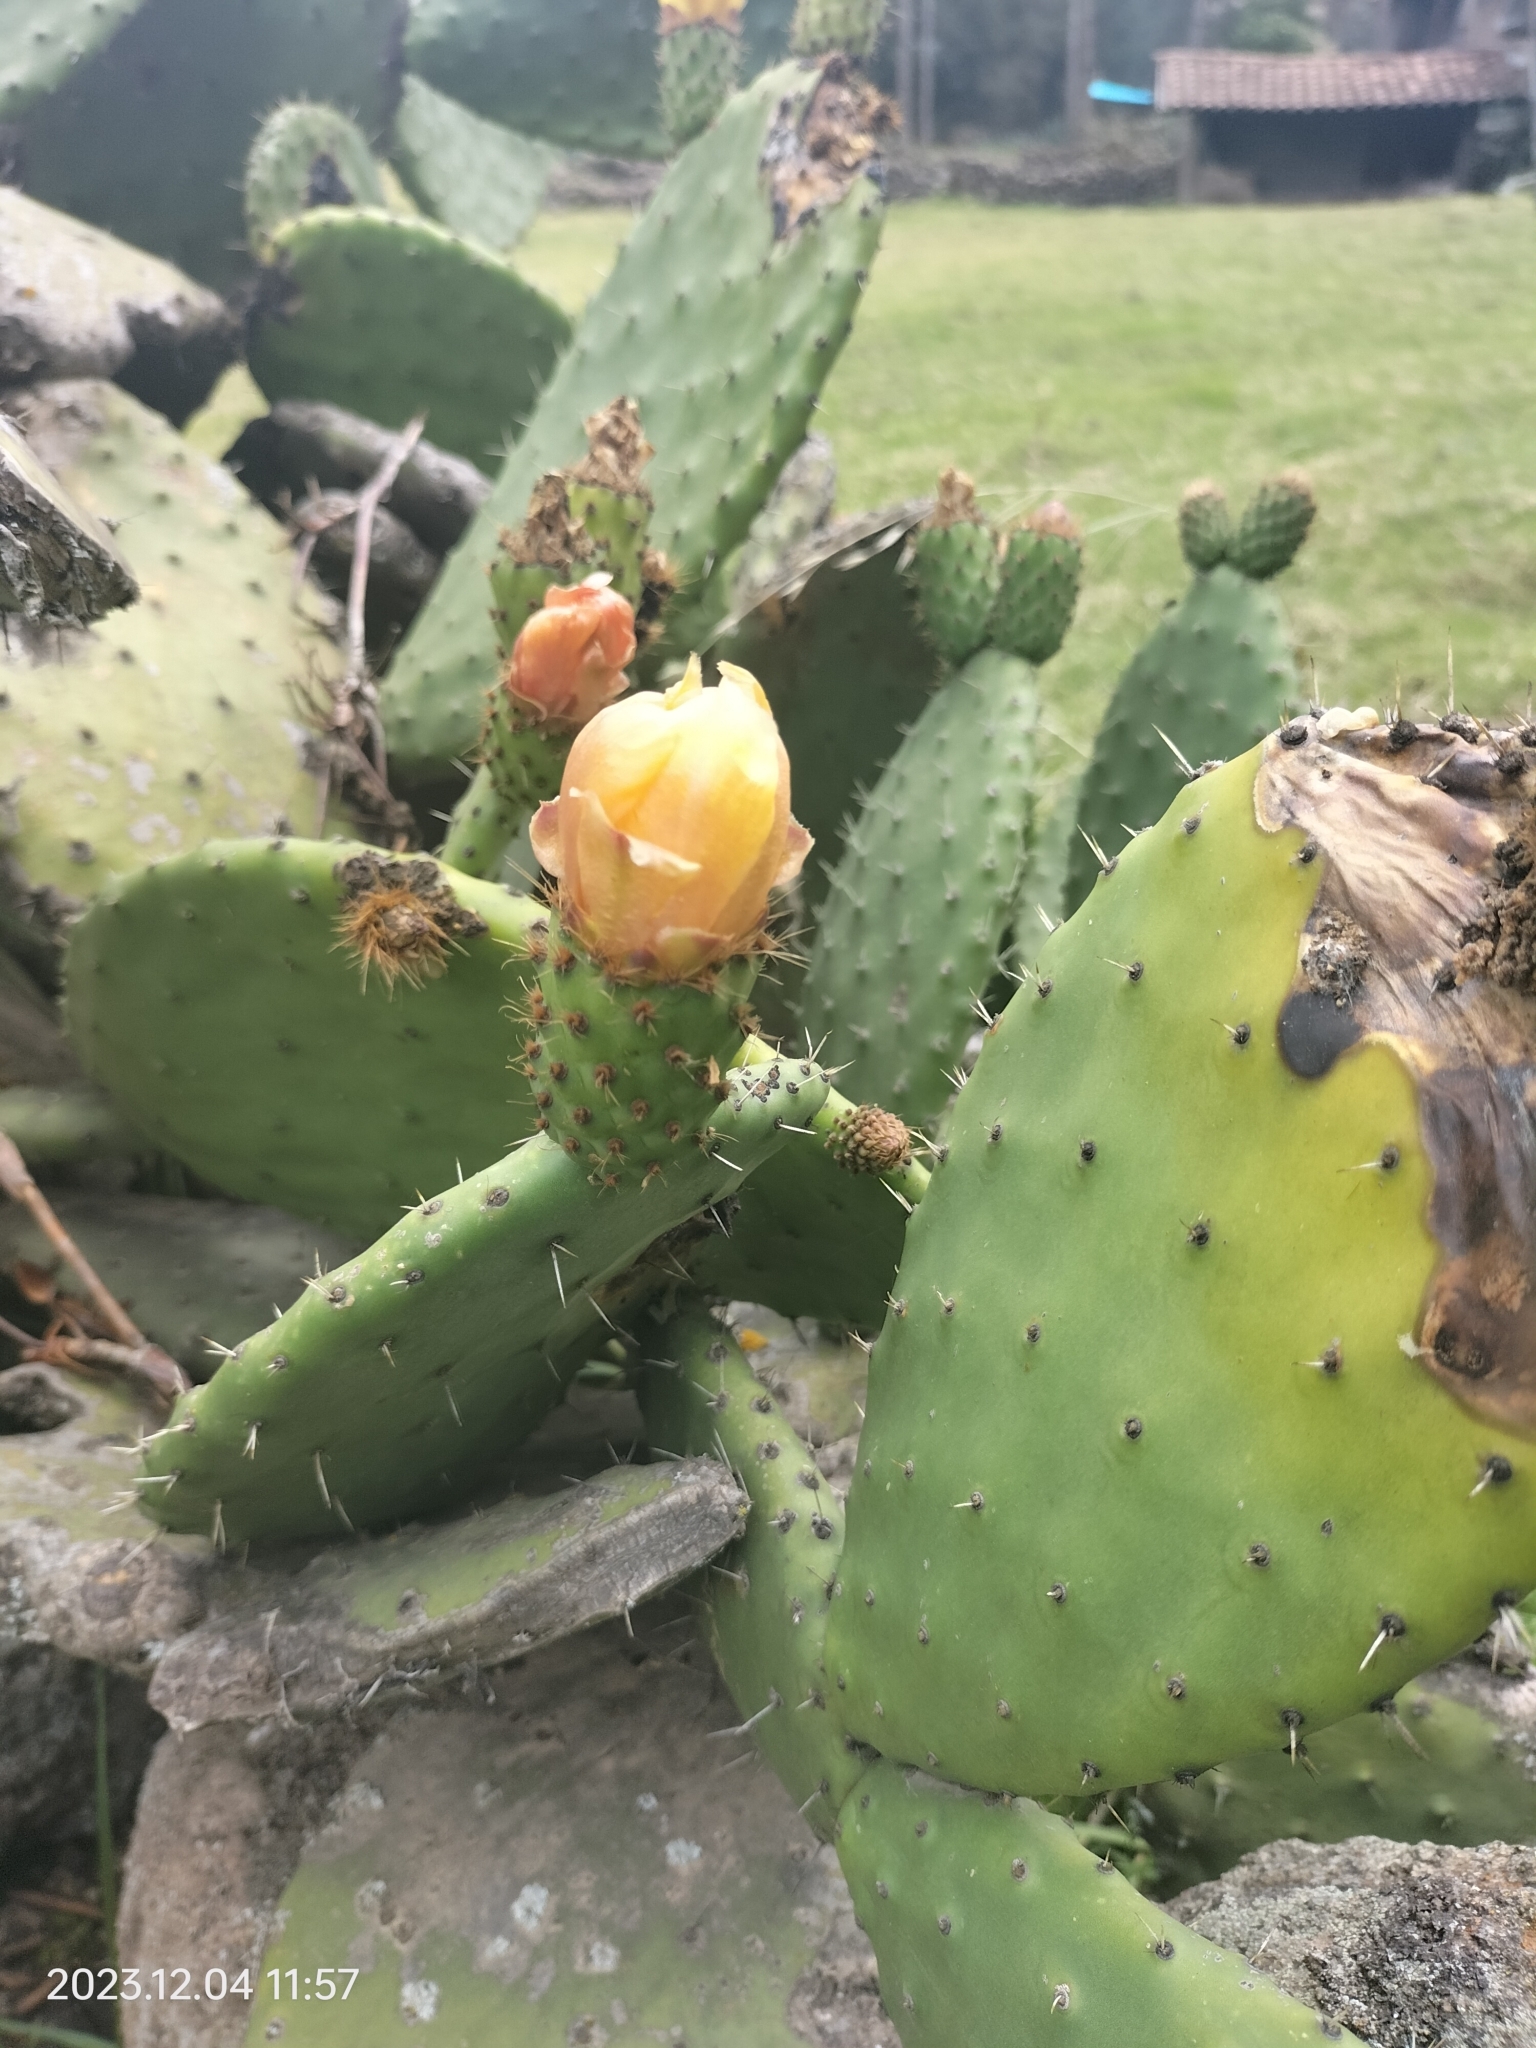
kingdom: Plantae
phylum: Tracheophyta
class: Magnoliopsida
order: Caryophyllales
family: Cactaceae
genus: Opuntia
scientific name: Opuntia ficus-indica
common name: Barbary fig
